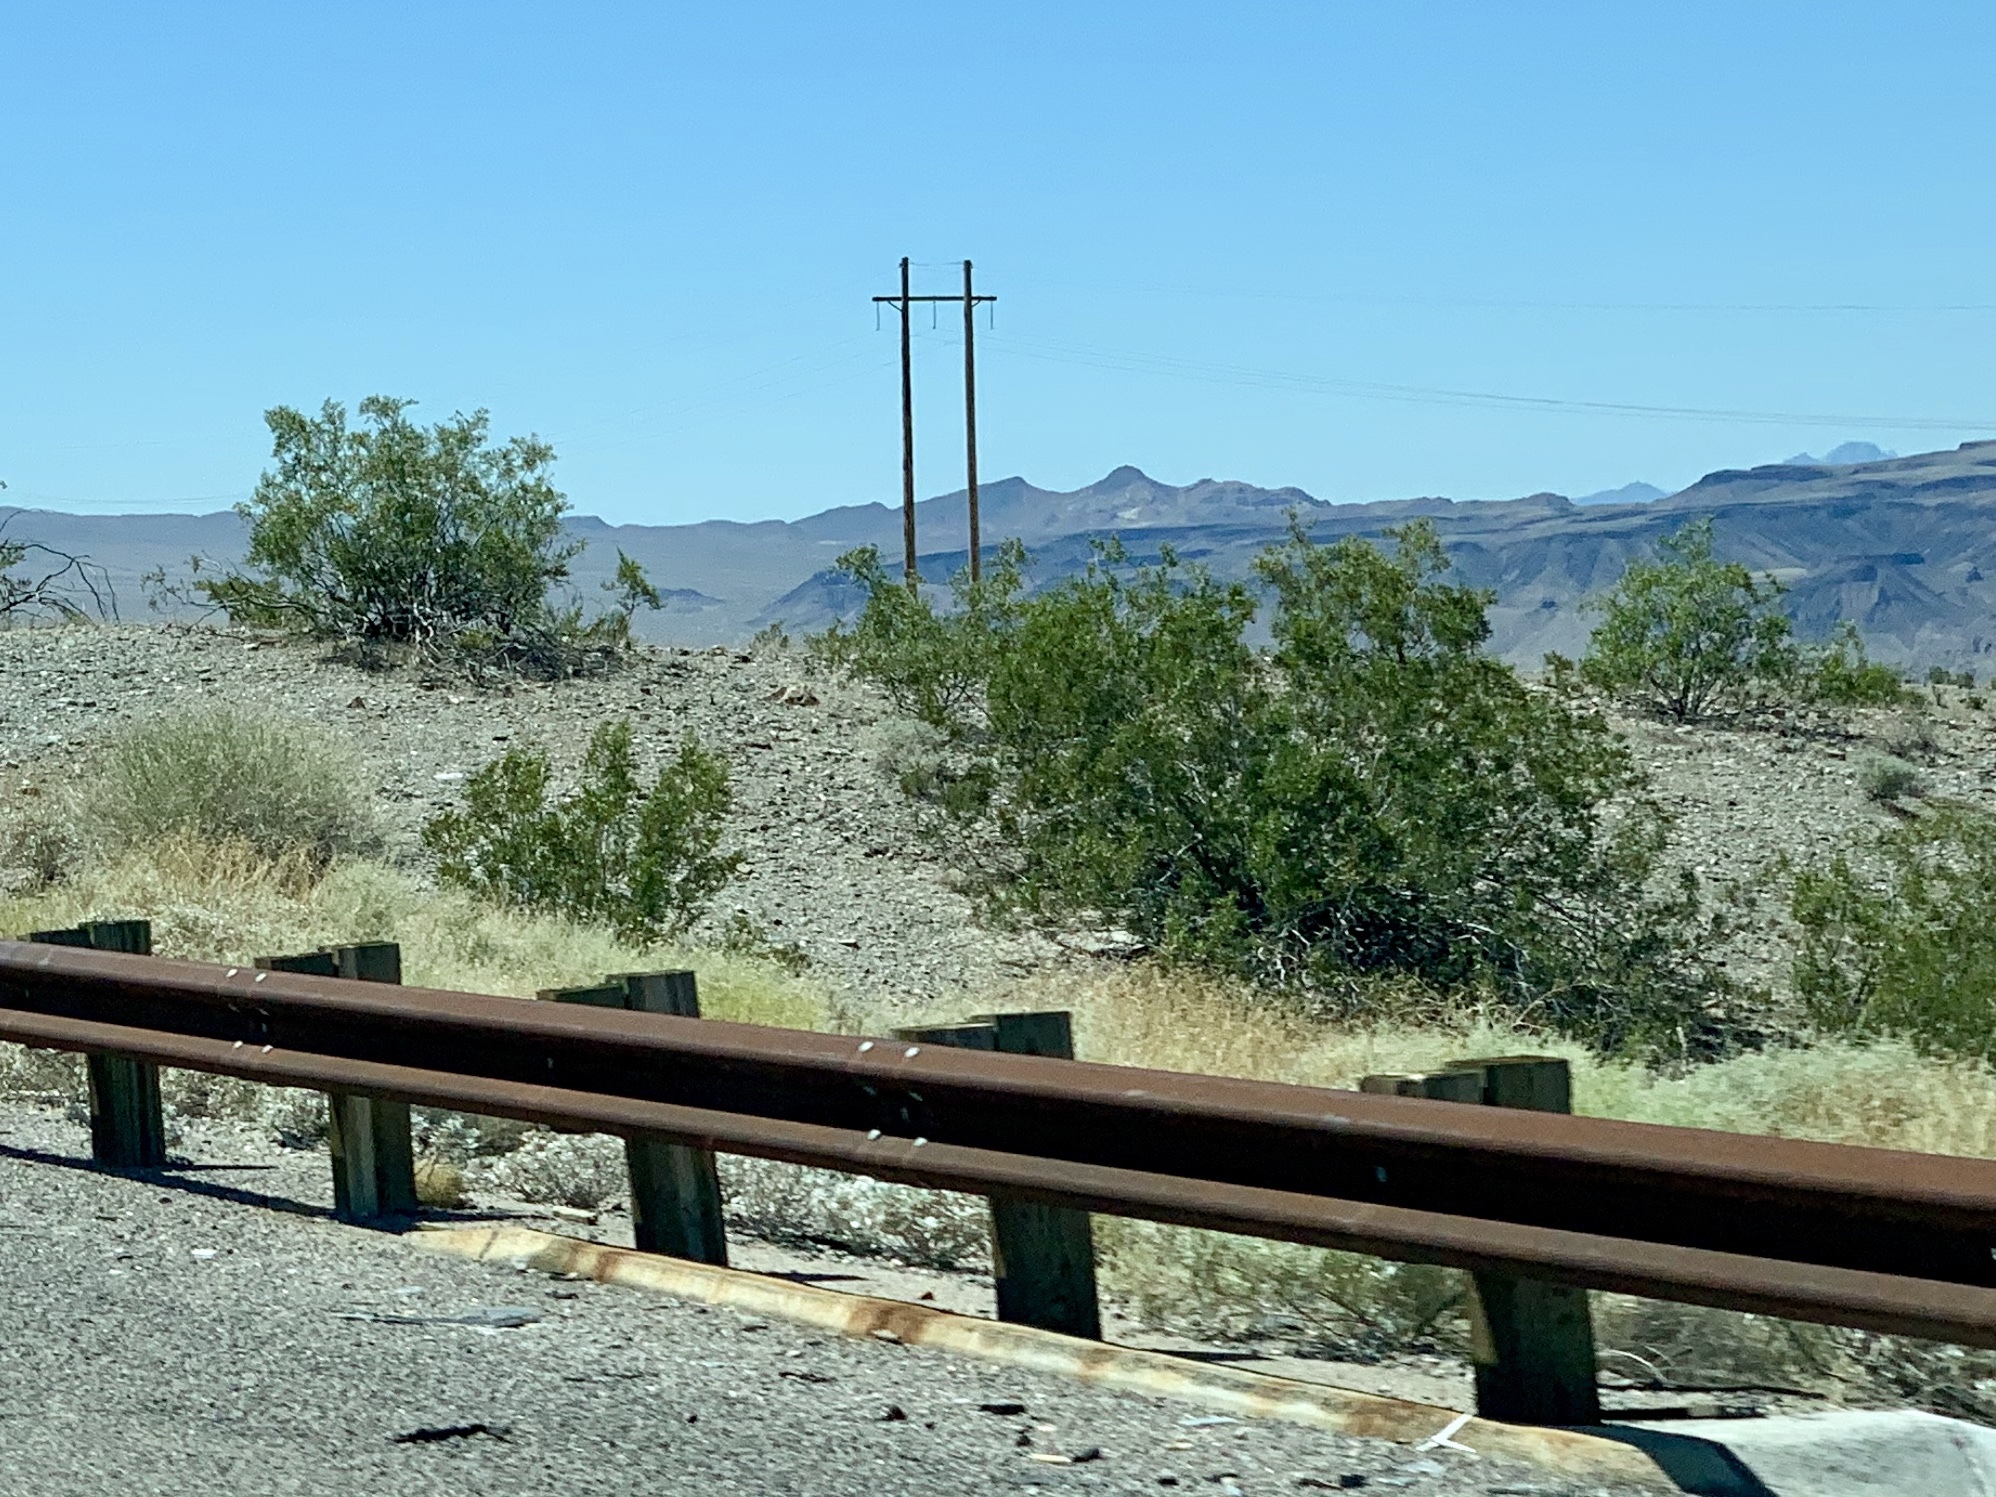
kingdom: Plantae
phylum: Tracheophyta
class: Magnoliopsida
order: Zygophyllales
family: Zygophyllaceae
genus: Larrea
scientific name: Larrea tridentata
